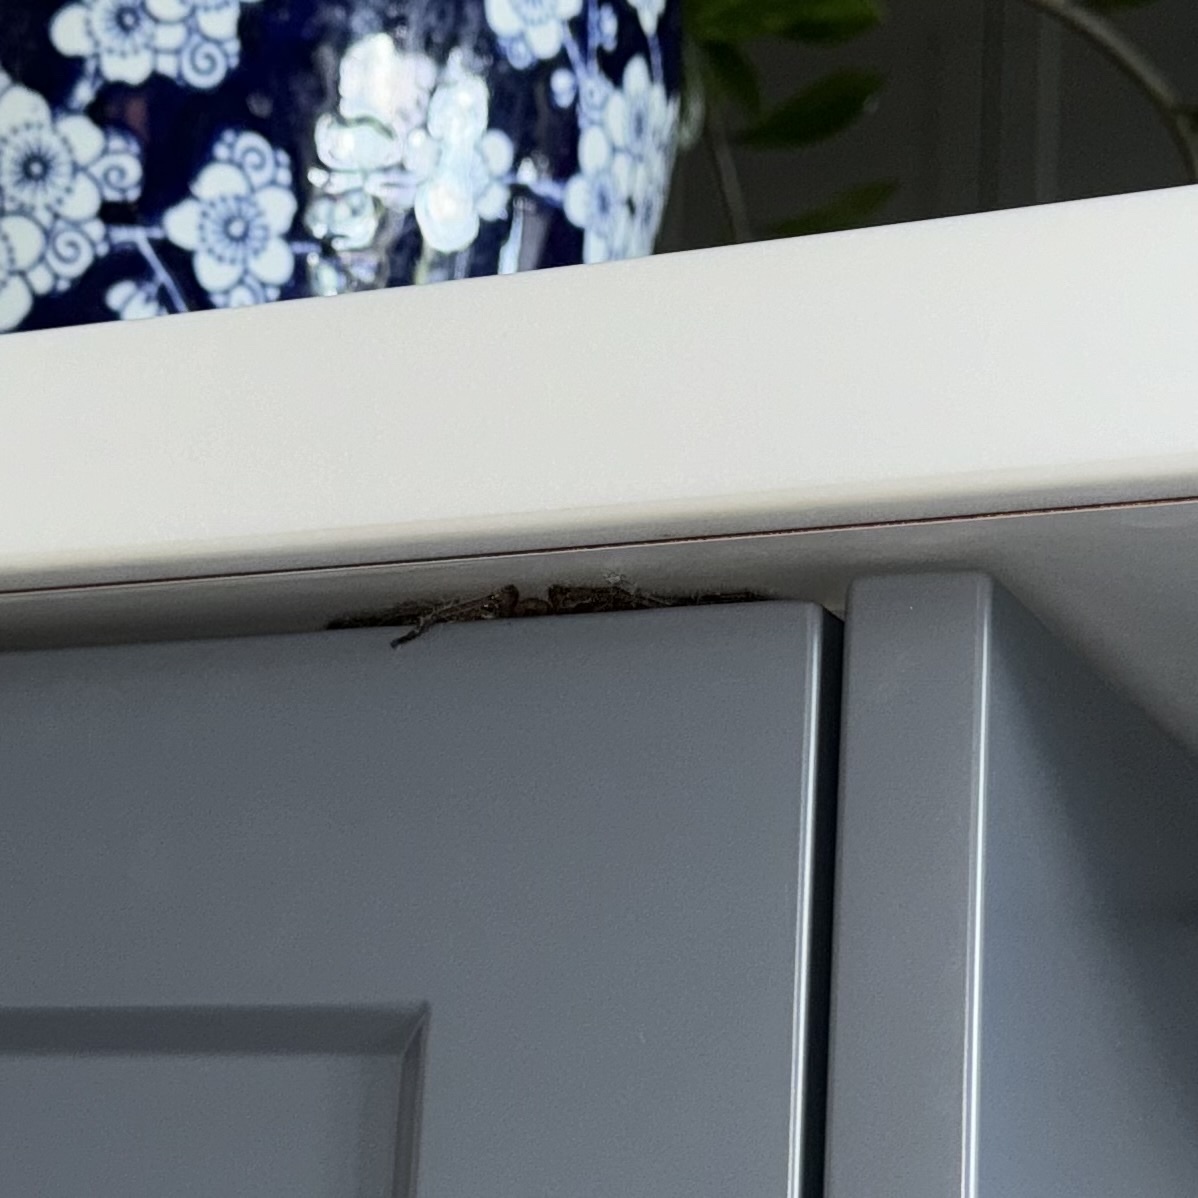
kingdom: Animalia
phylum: Arthropoda
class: Arachnida
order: Araneae
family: Sparassidae
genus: Delena
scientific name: Delena cancerides
